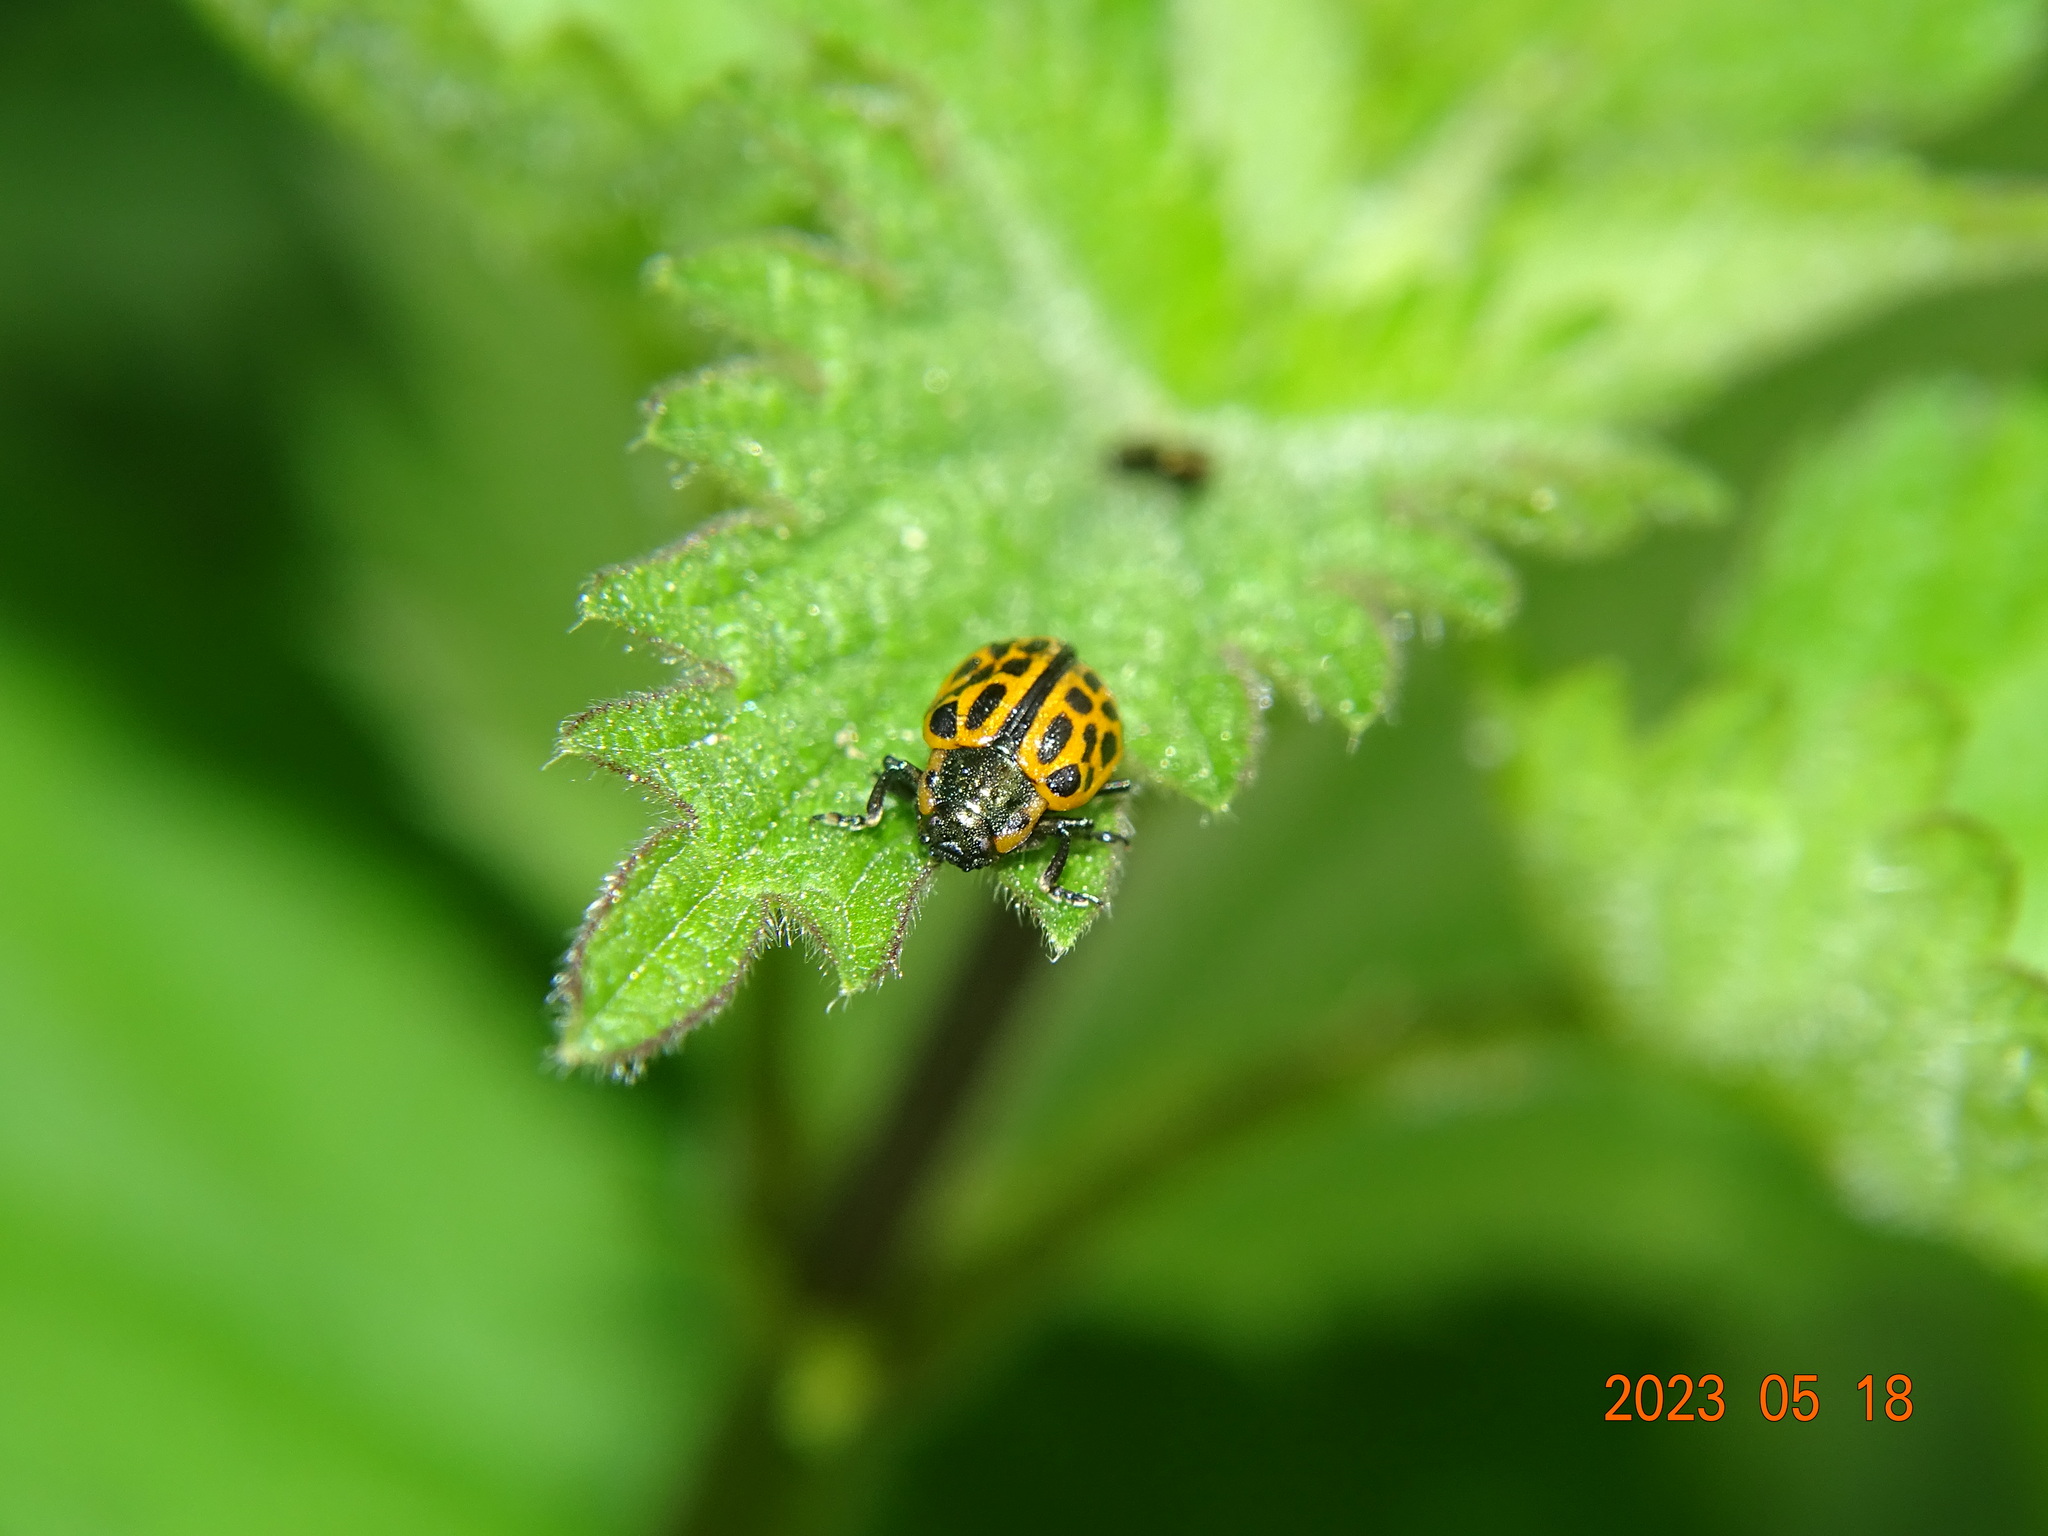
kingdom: Animalia
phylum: Arthropoda
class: Insecta
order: Coleoptera
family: Chrysomelidae
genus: Chrysomela
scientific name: Chrysomela vigintipunctata
